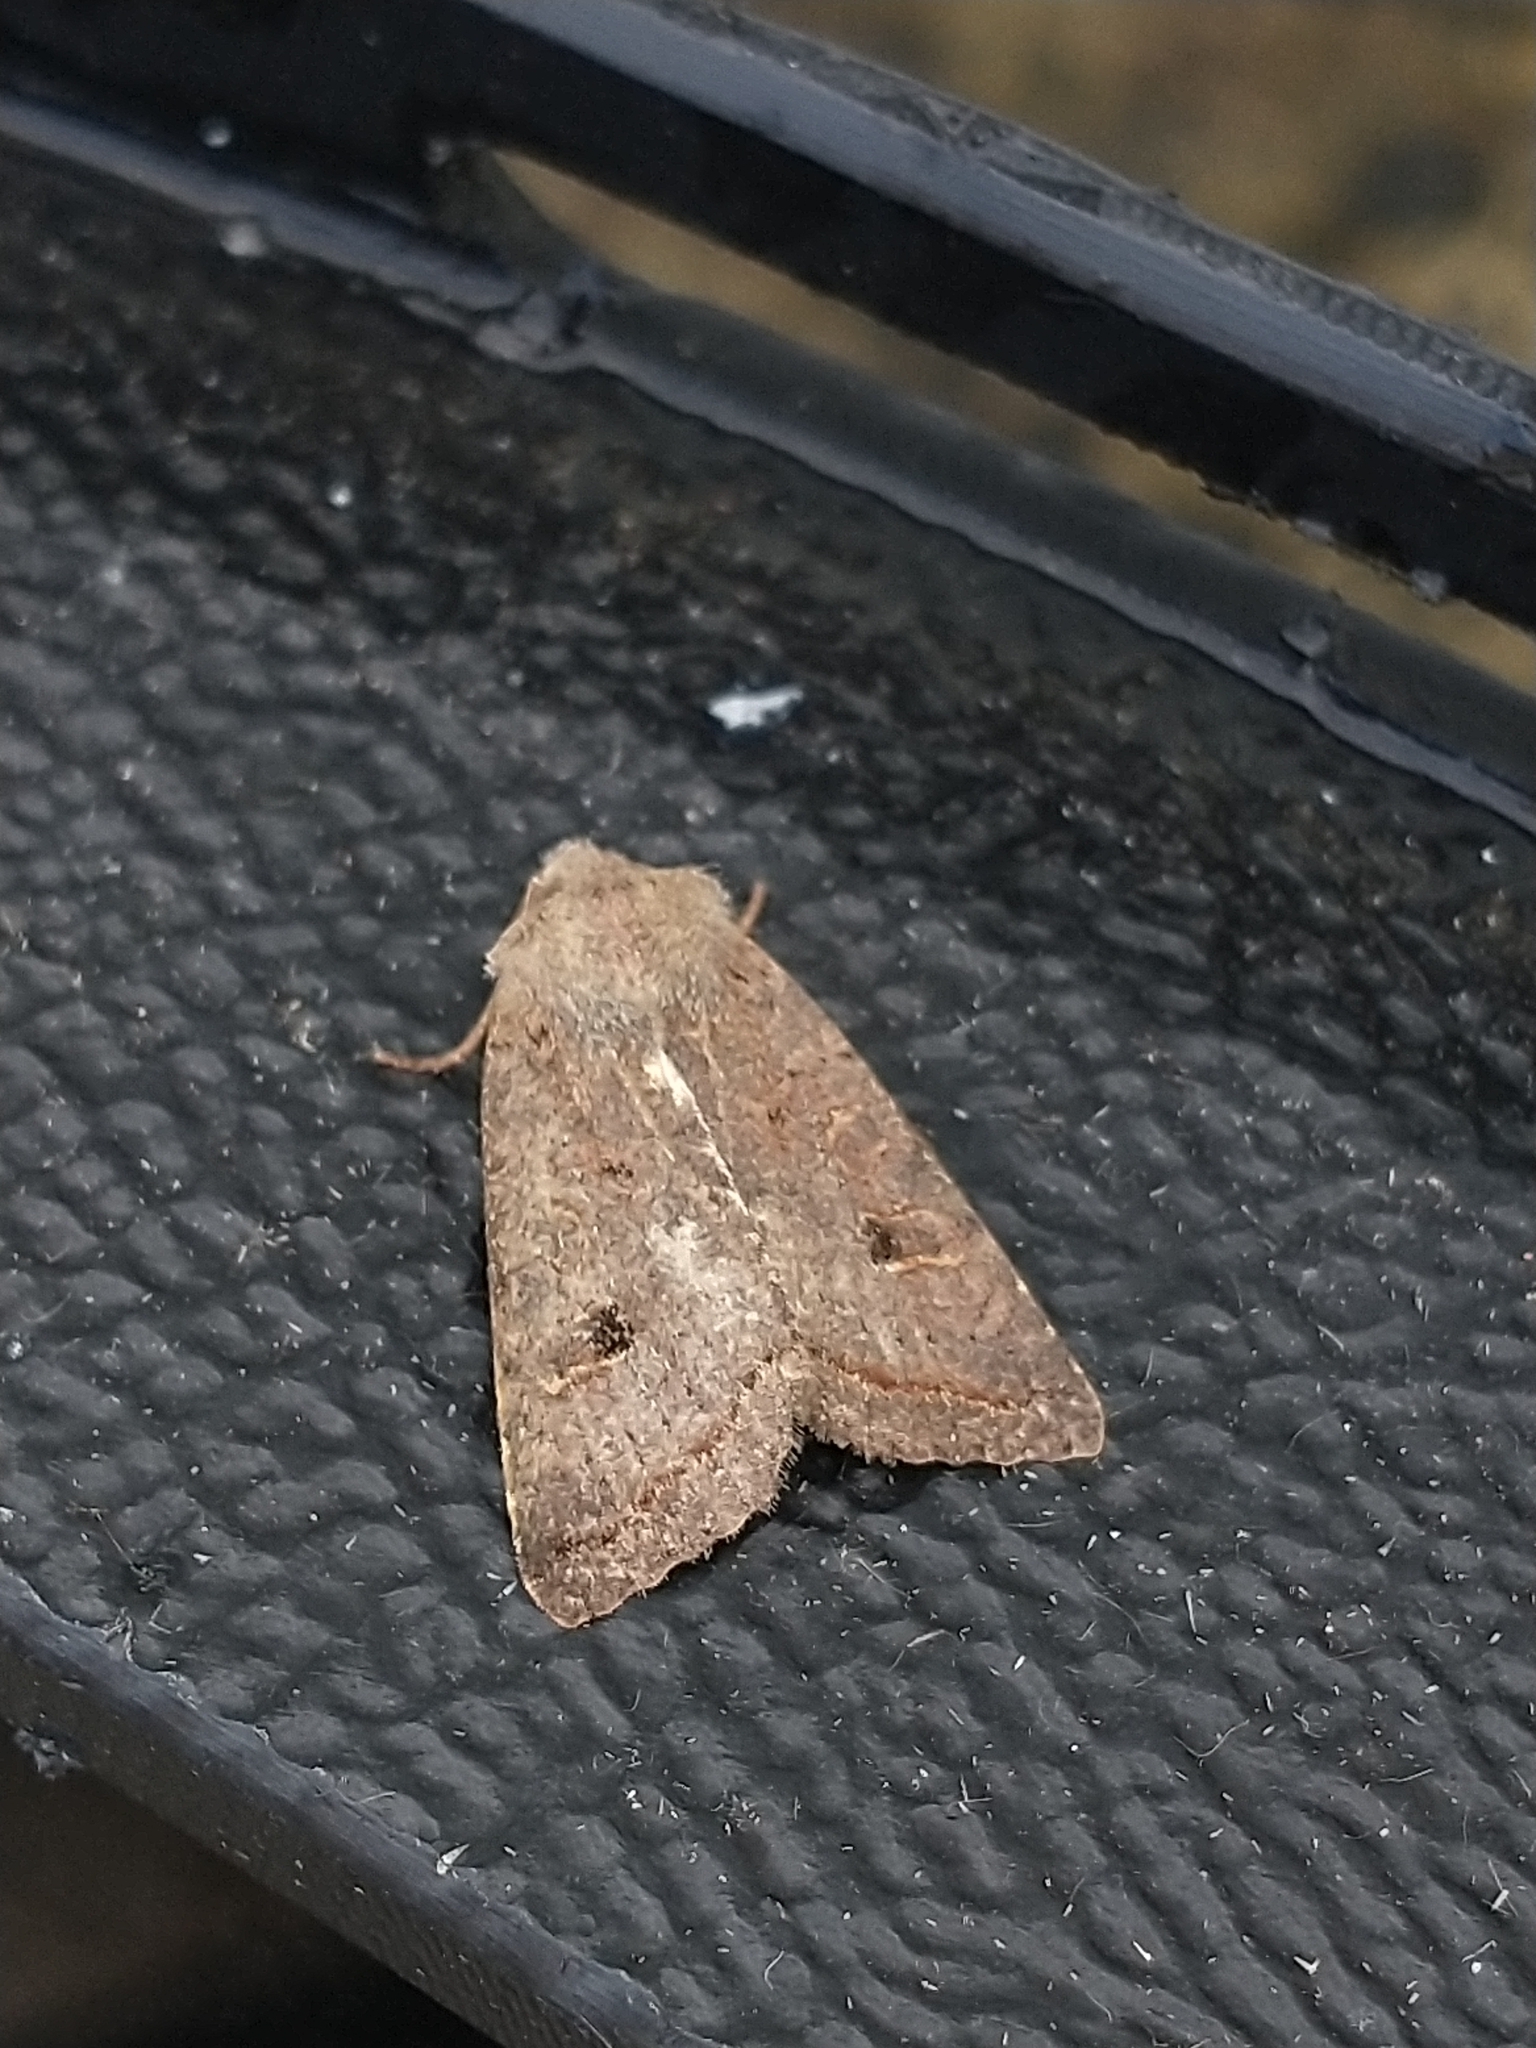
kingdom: Animalia
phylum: Arthropoda
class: Insecta
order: Lepidoptera
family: Noctuidae
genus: Agrochola
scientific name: Agrochola lota
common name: Red-line quaker
